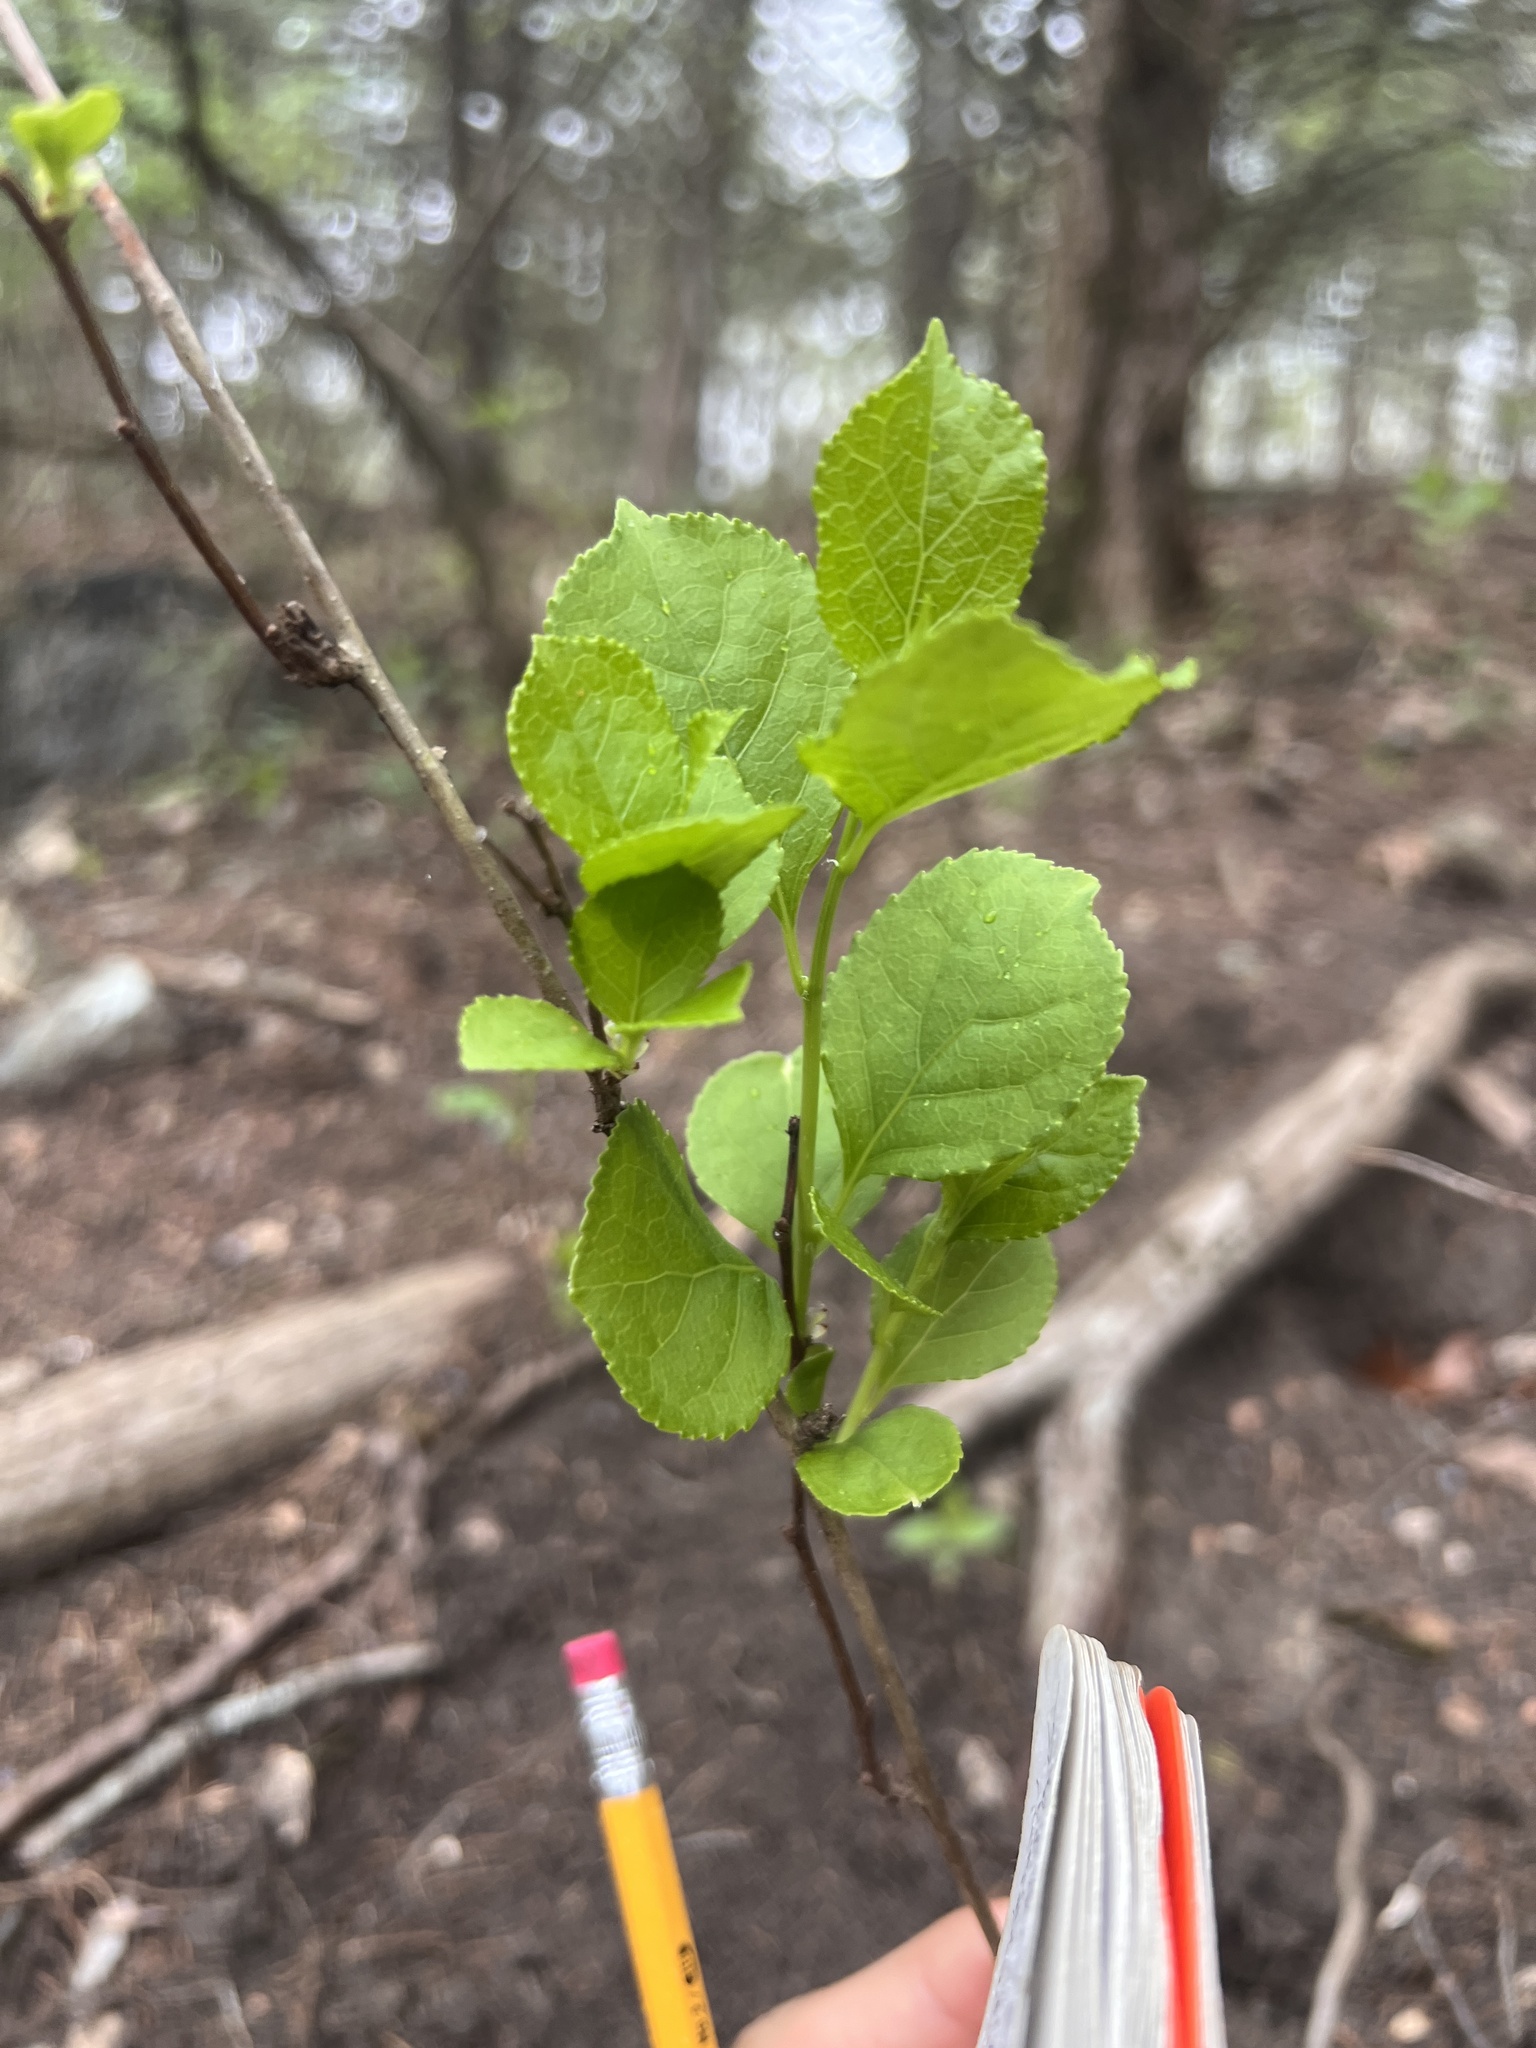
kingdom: Plantae
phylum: Tracheophyta
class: Magnoliopsida
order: Celastrales
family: Celastraceae
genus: Celastrus
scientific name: Celastrus orbiculatus
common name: Oriental bittersweet
